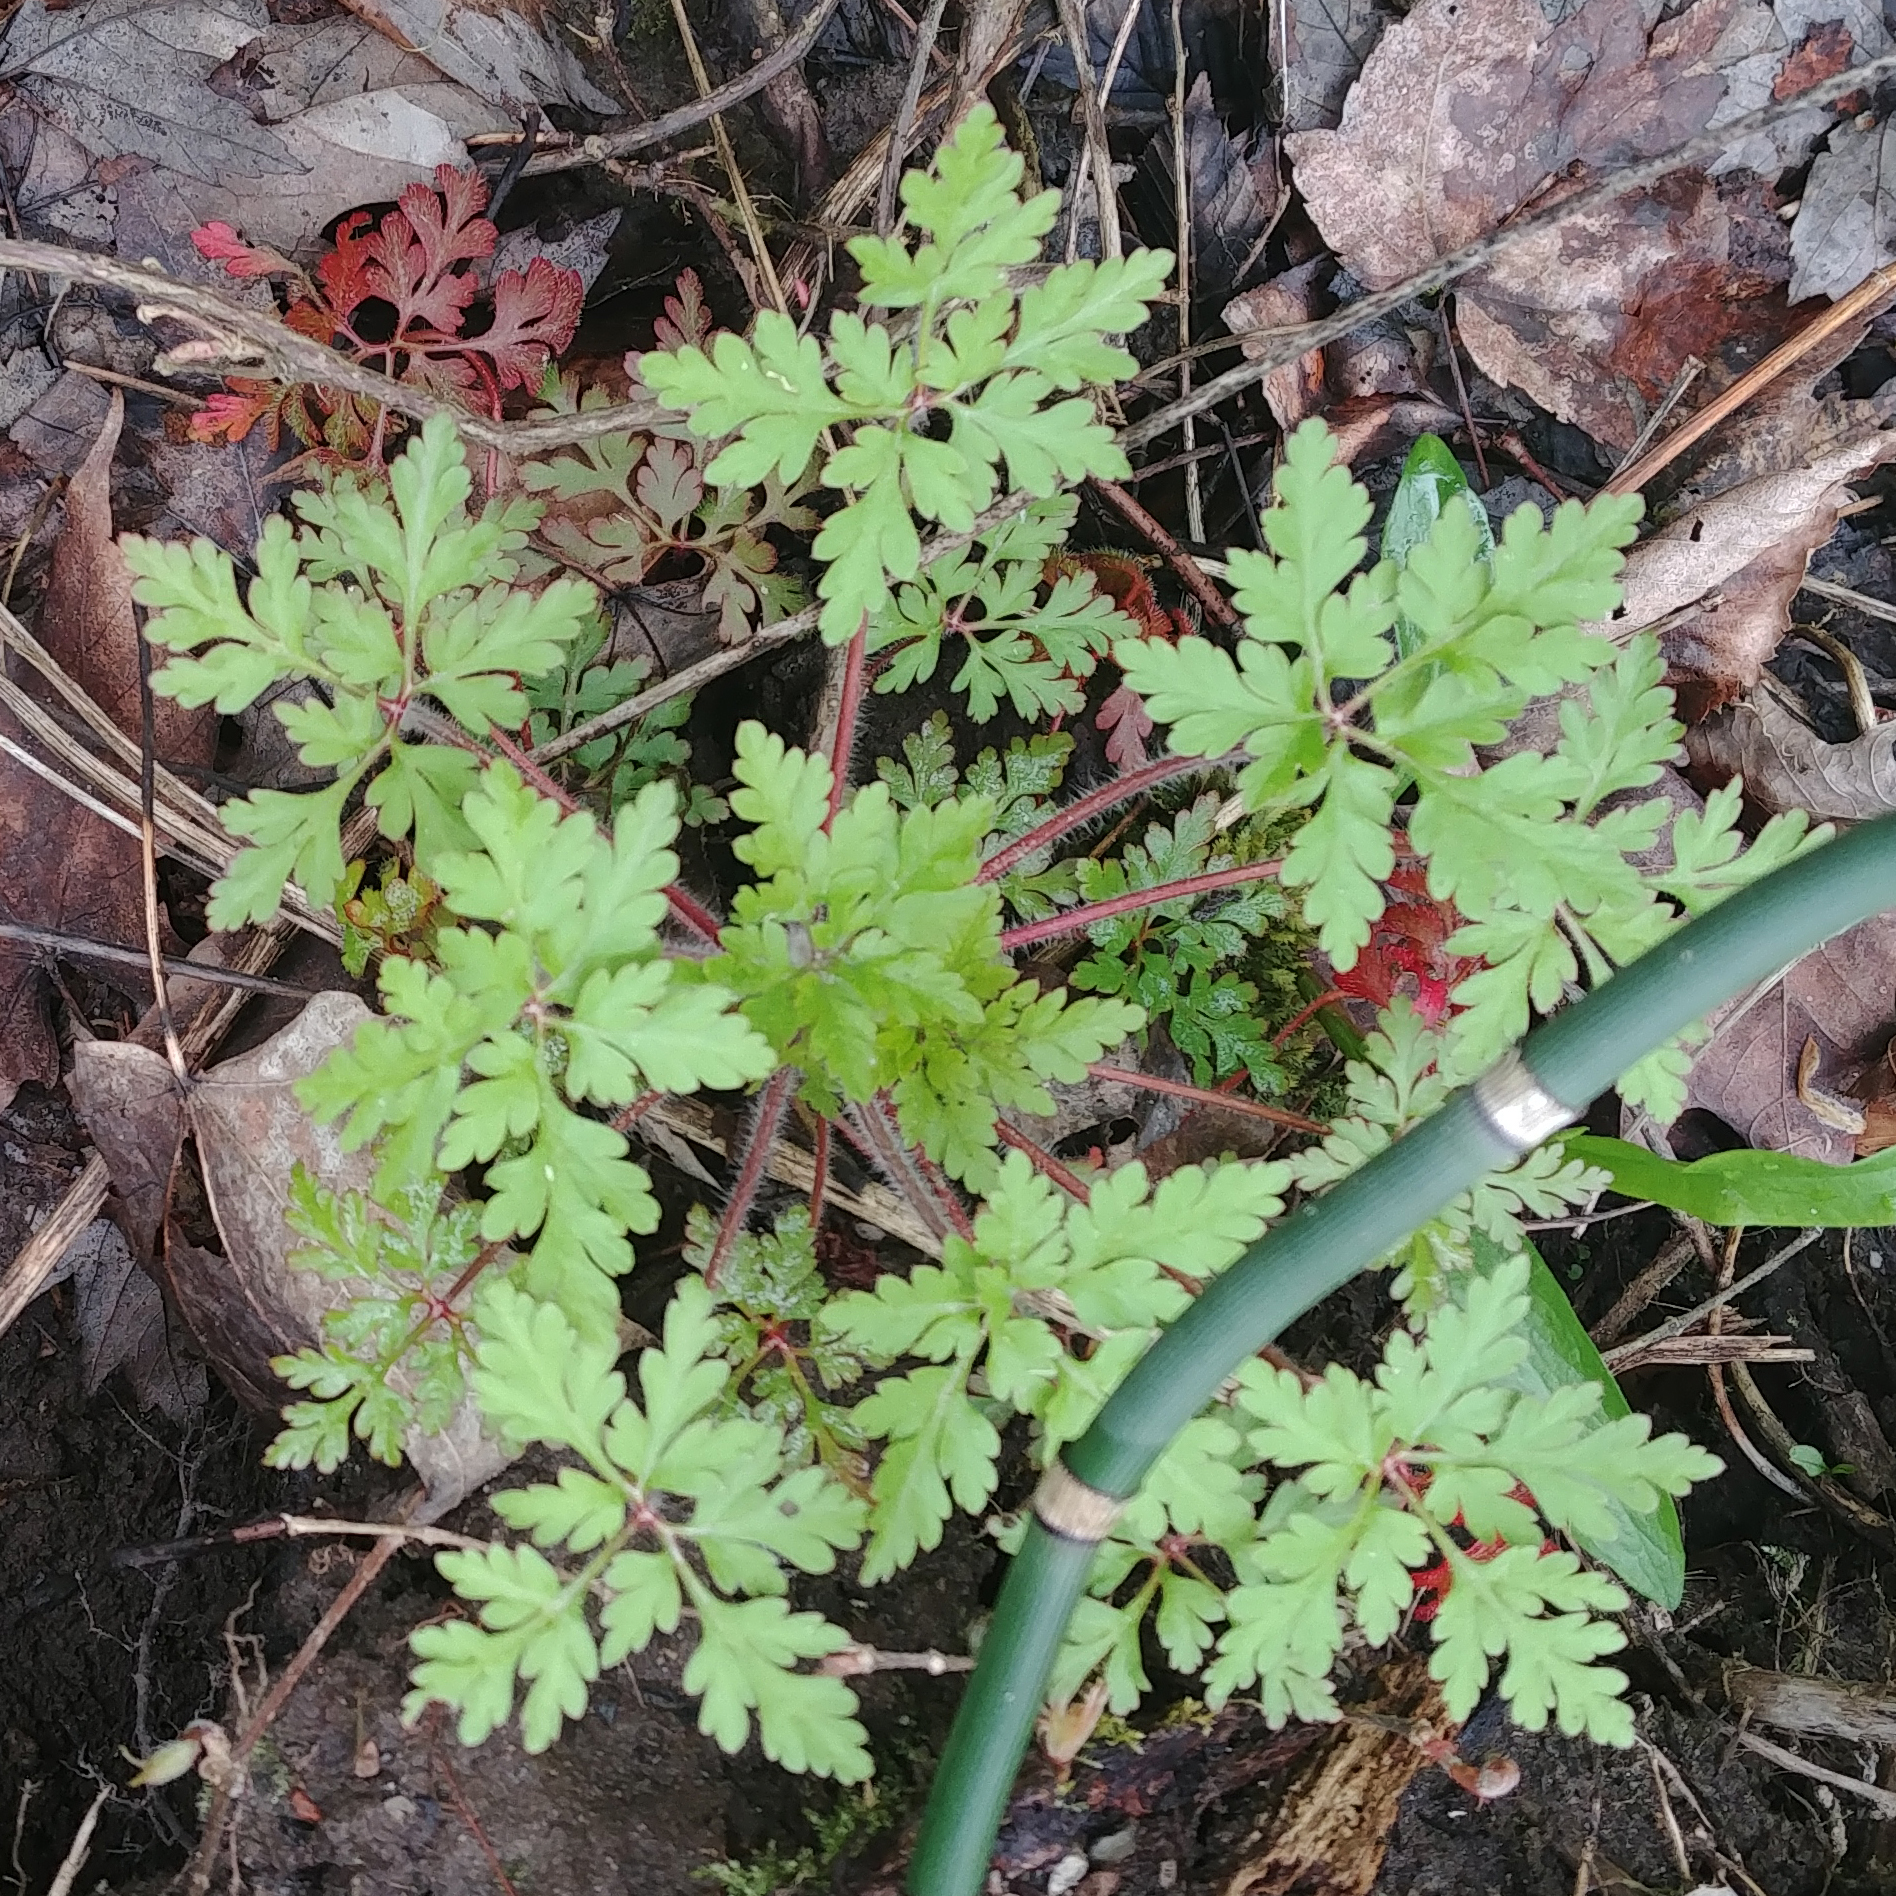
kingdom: Plantae
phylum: Tracheophyta
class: Magnoliopsida
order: Geraniales
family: Geraniaceae
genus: Geranium
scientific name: Geranium robertianum
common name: Herb-robert
